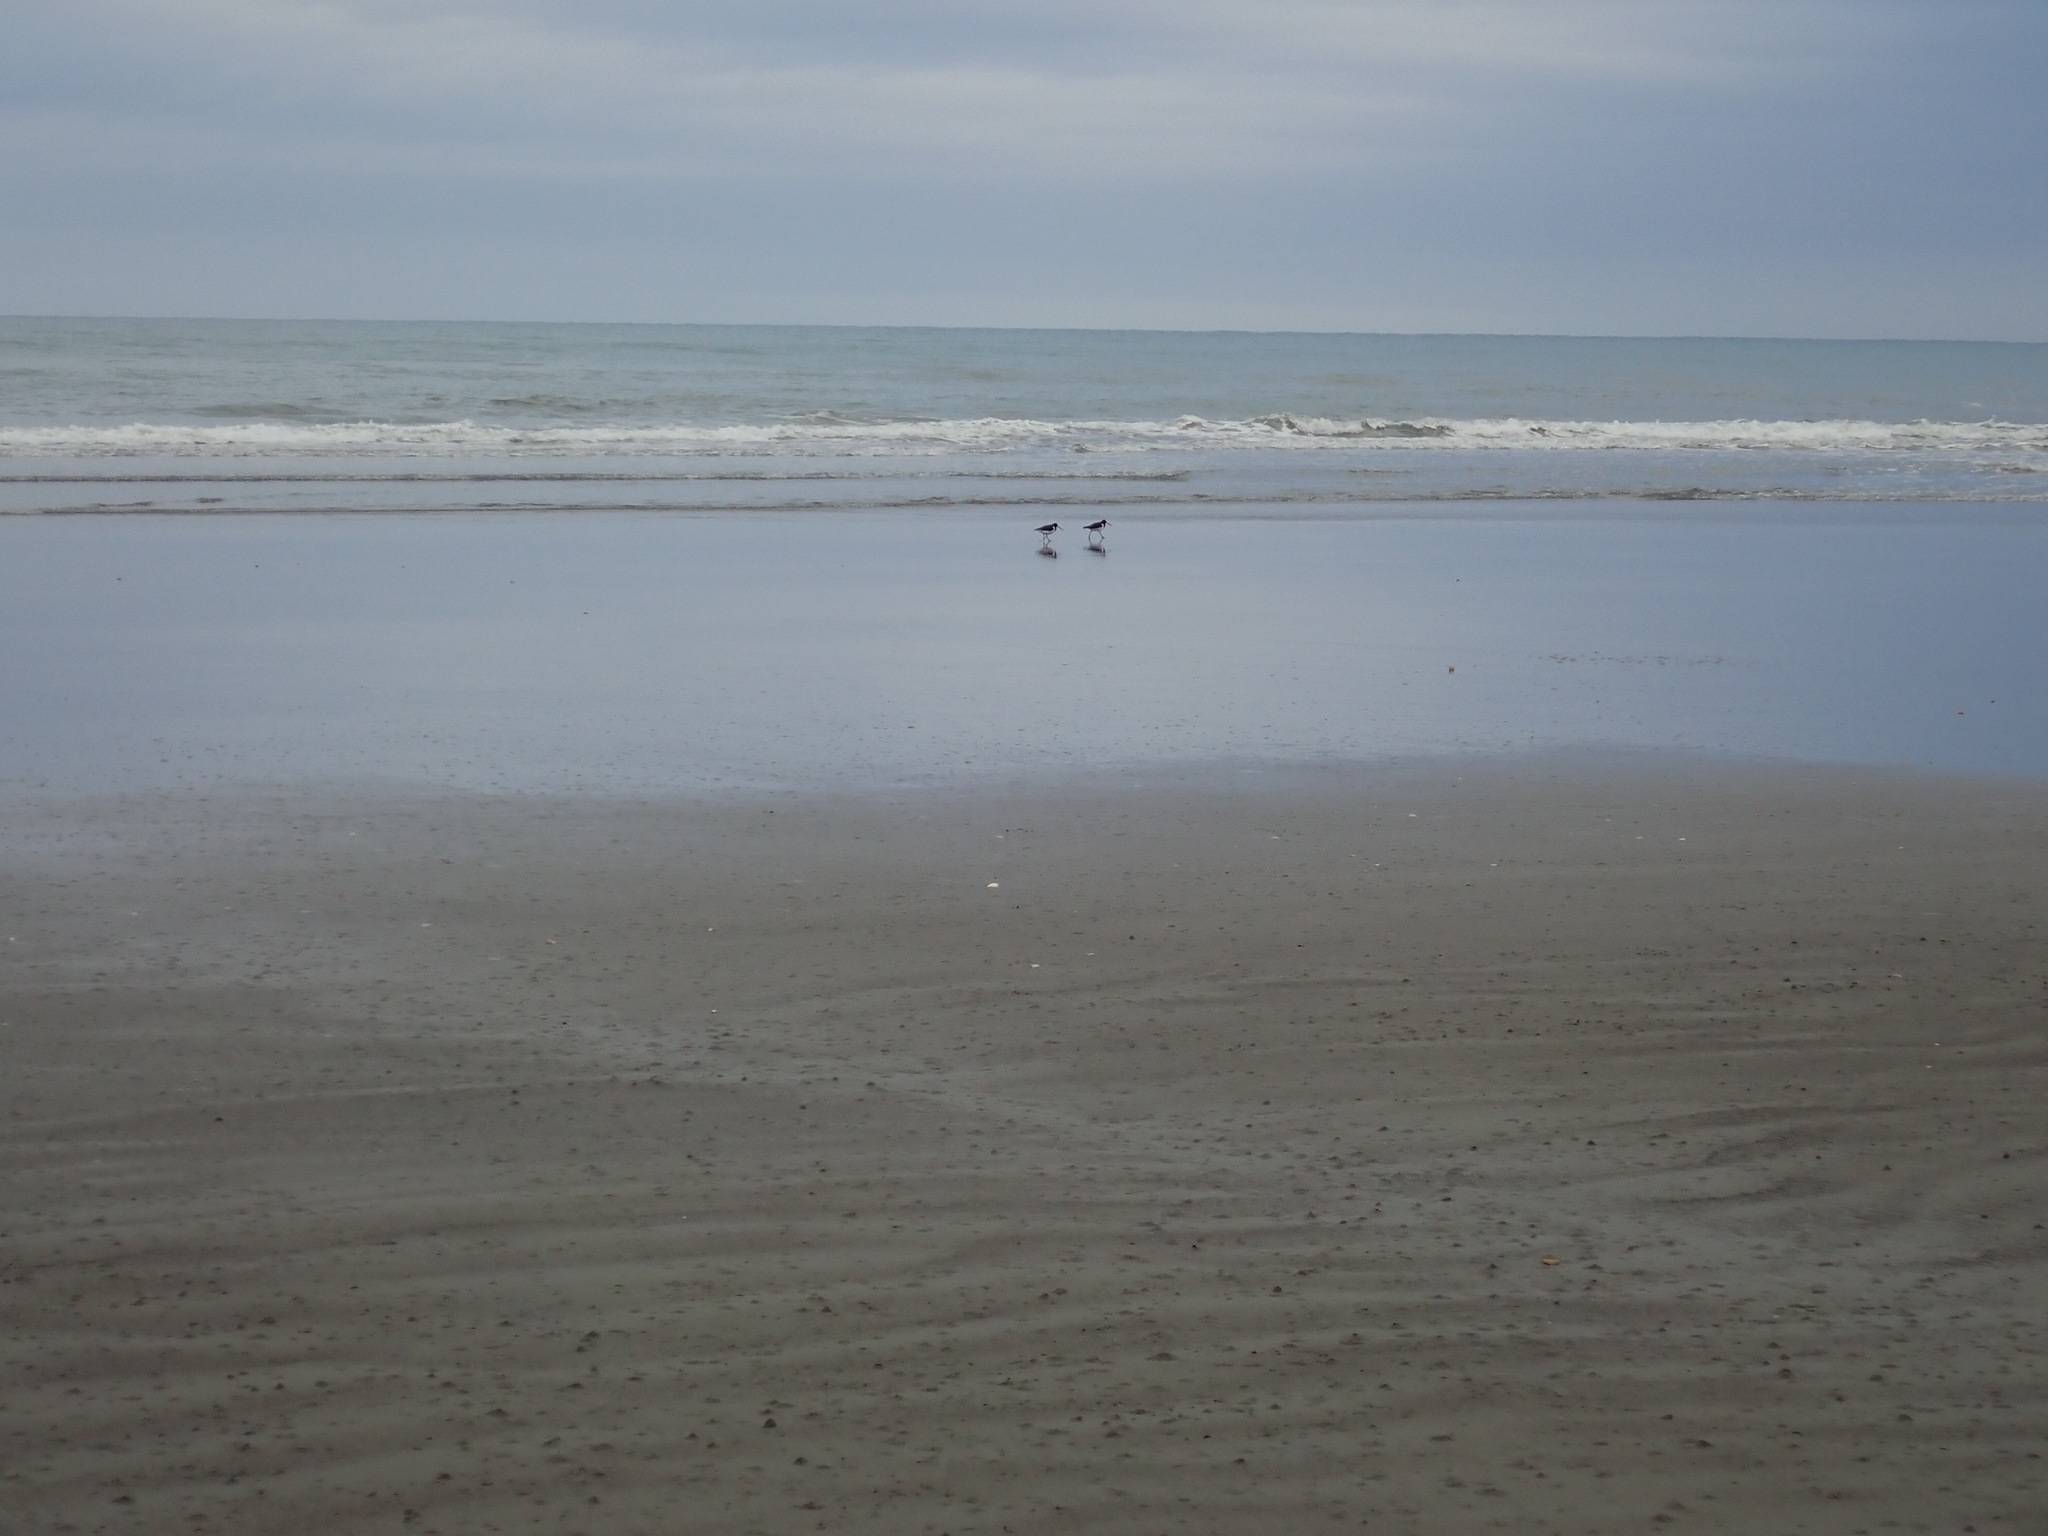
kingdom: Animalia
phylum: Chordata
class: Aves
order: Charadriiformes
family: Haematopodidae
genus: Haematopus
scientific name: Haematopus finschi
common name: South island oystercatcher
